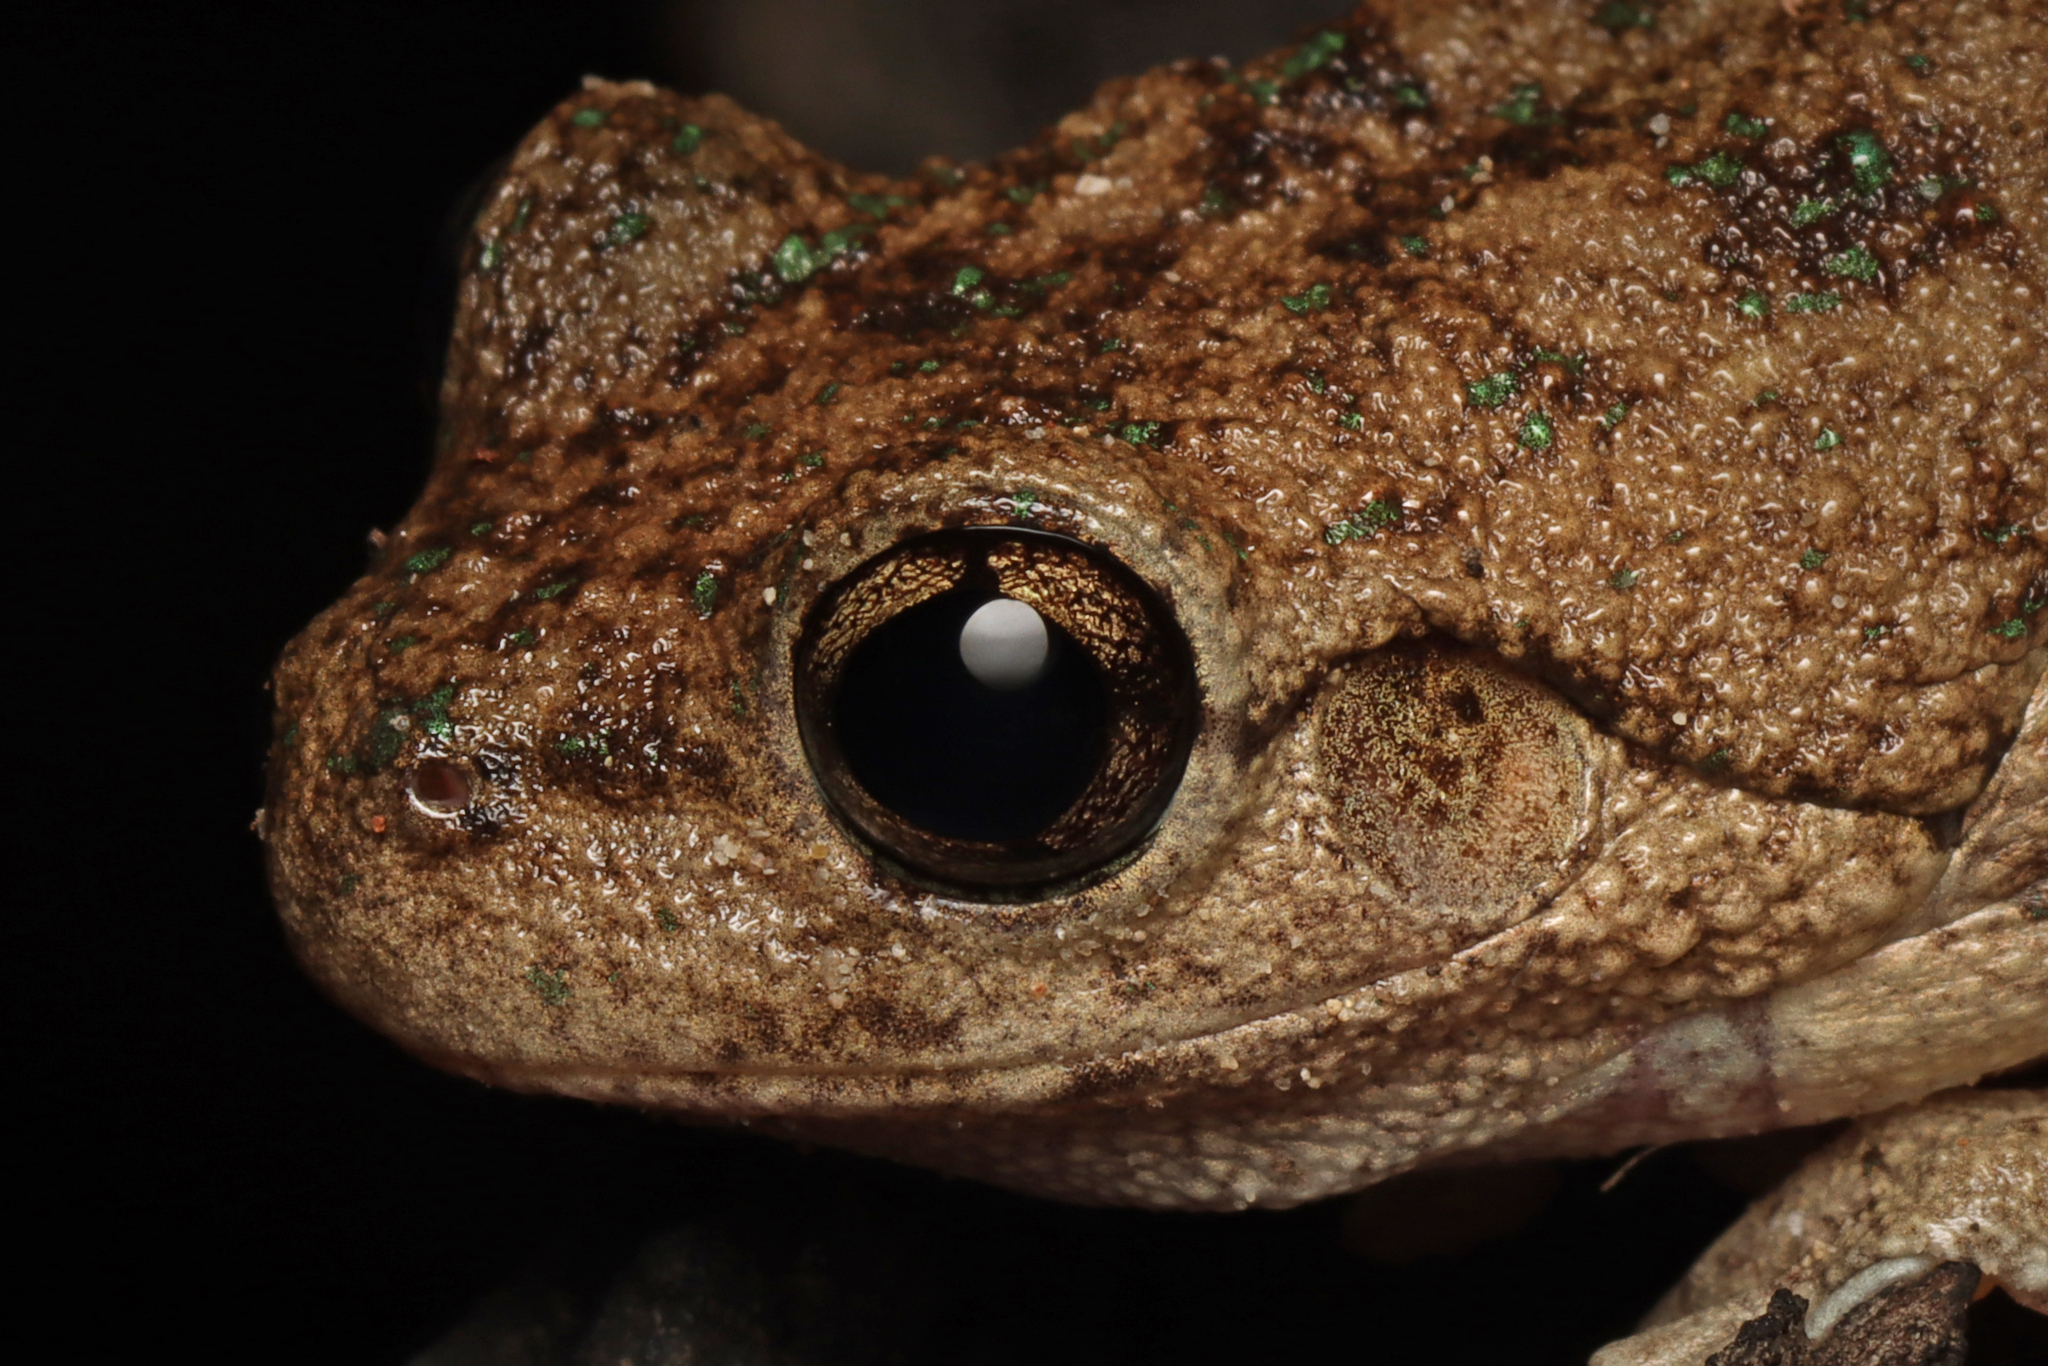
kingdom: Animalia
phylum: Chordata
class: Amphibia
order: Anura
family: Pelodryadidae
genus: Litoria
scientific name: Litoria peronii
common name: Emerald spotted treefrog
